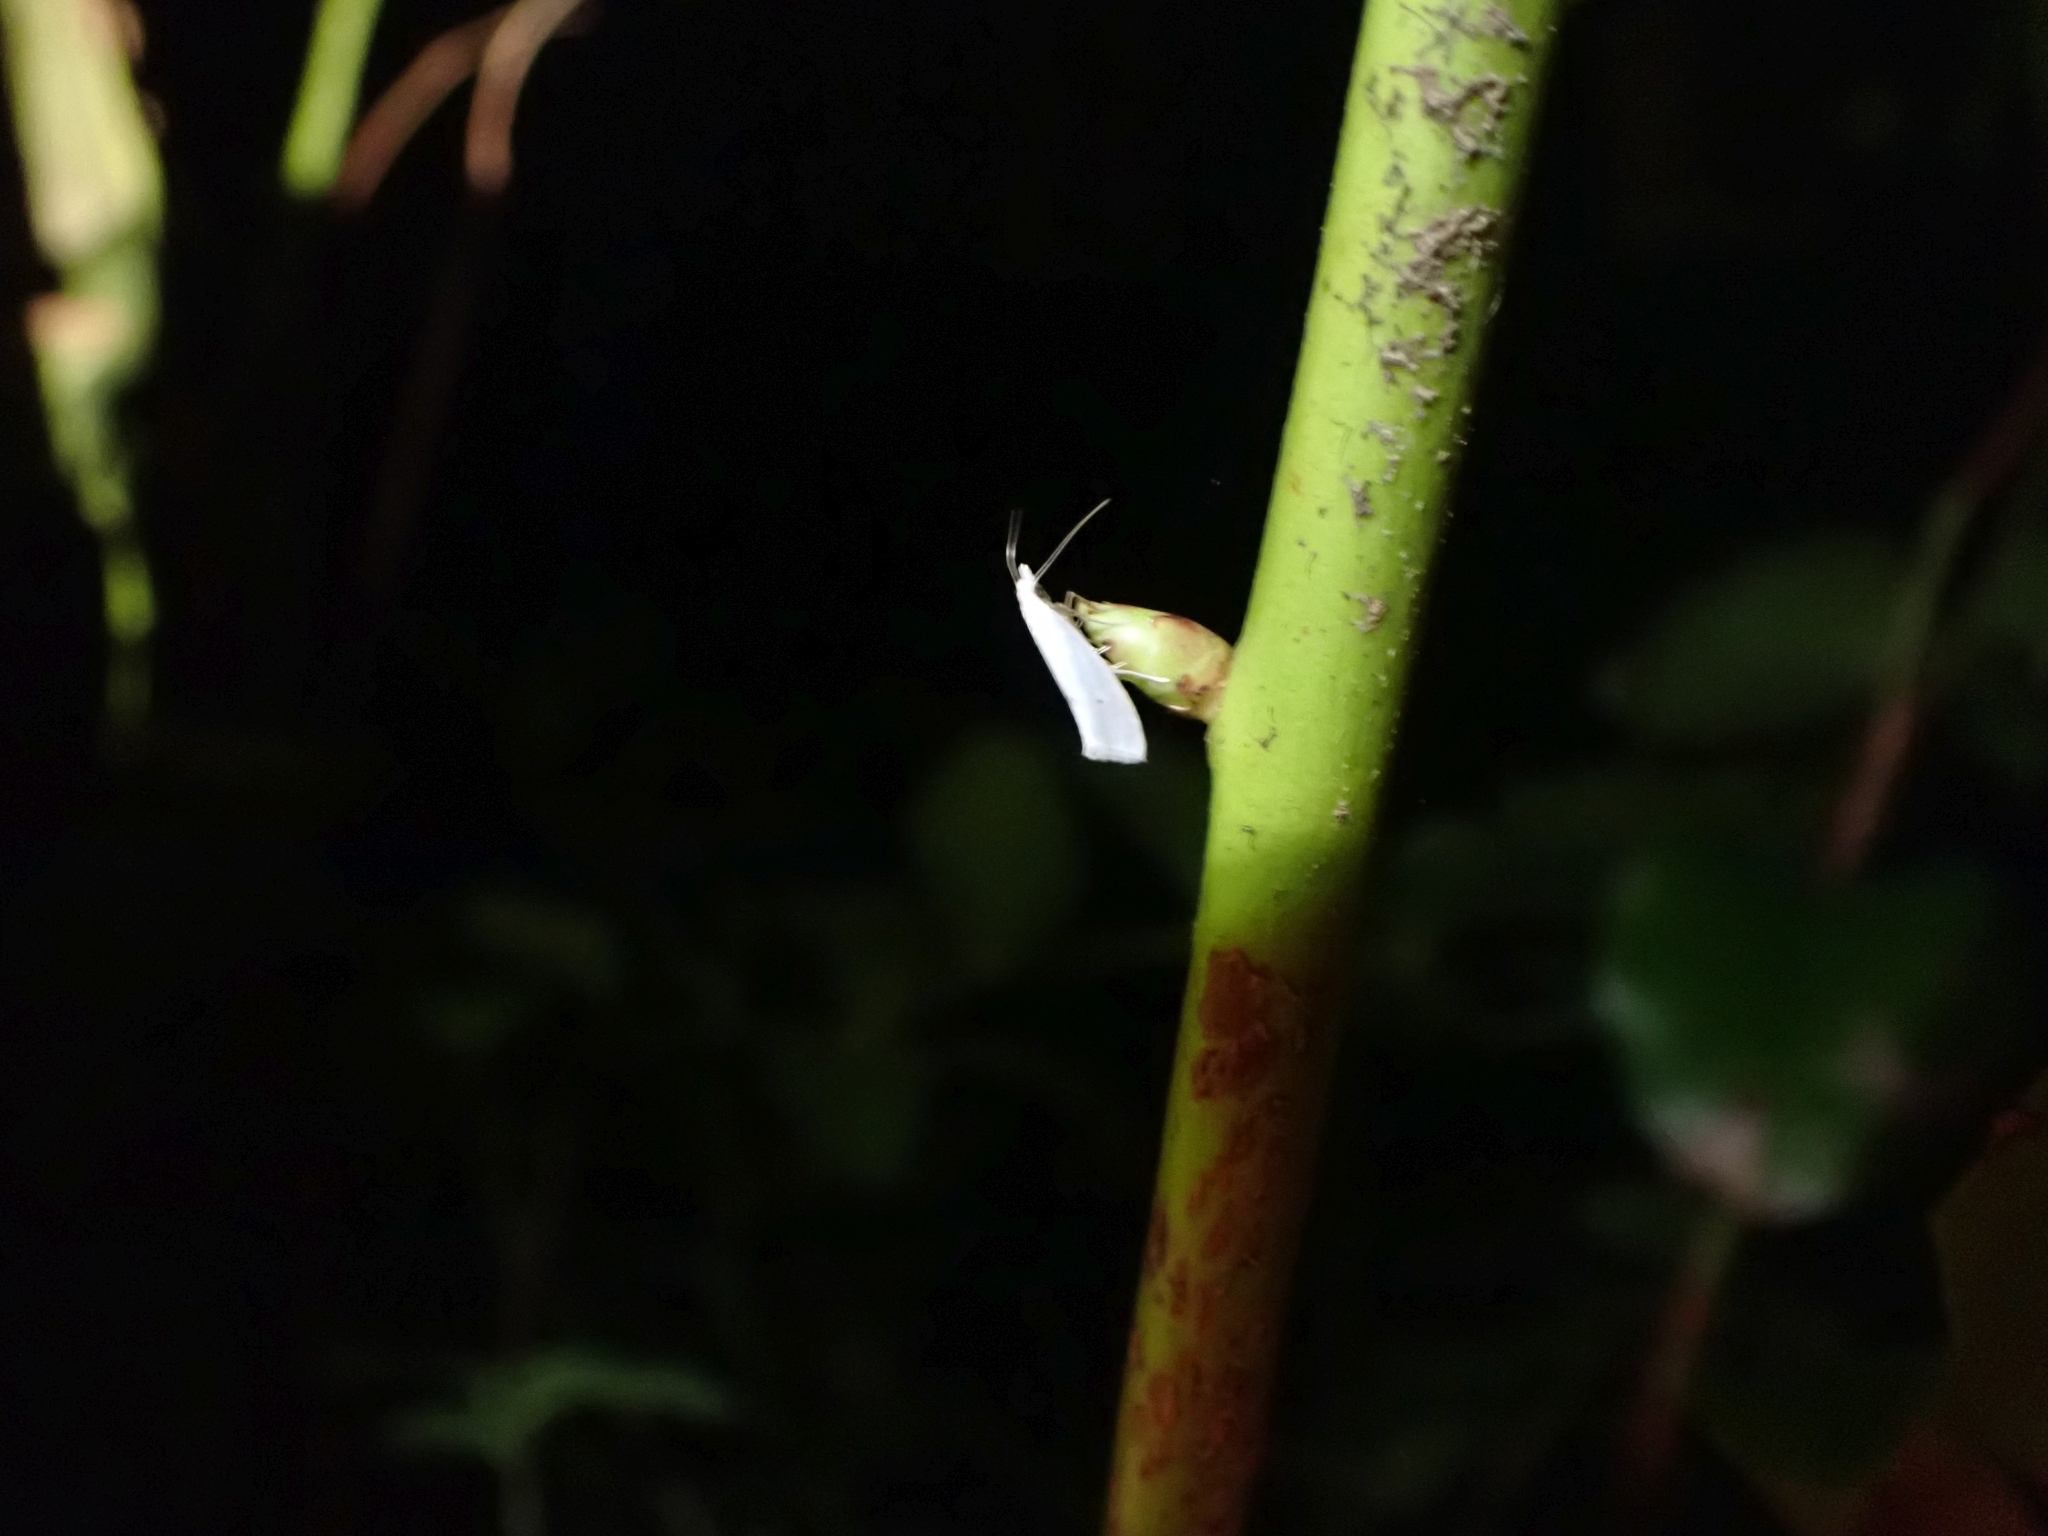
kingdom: Animalia
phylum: Arthropoda
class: Insecta
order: Lepidoptera
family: Yponomeutidae
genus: Eucalantica
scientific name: Eucalantica polita
